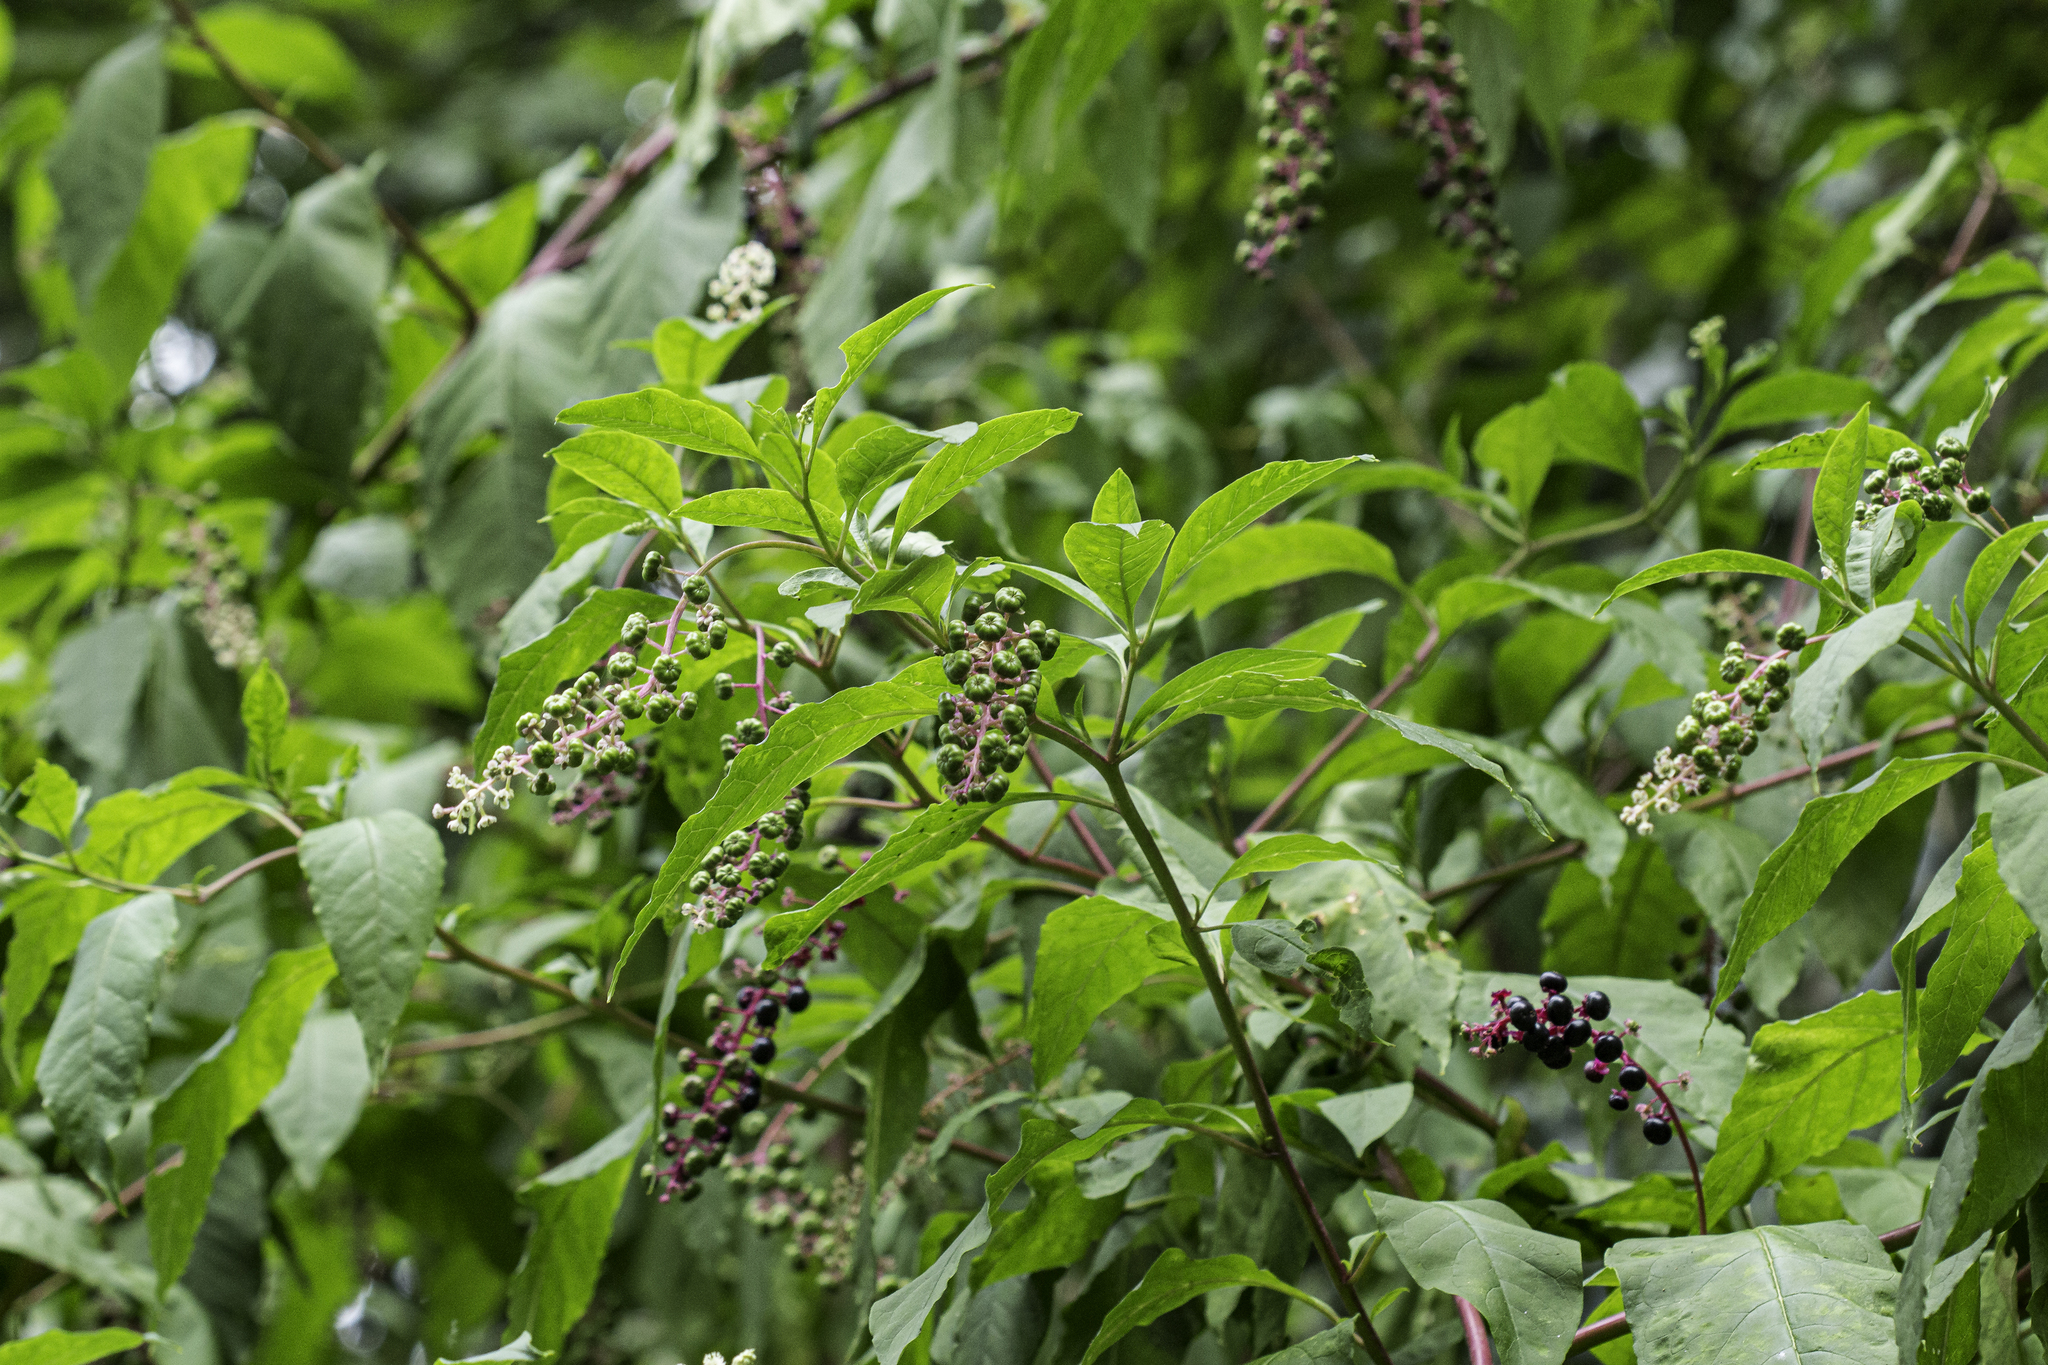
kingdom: Plantae
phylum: Tracheophyta
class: Magnoliopsida
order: Caryophyllales
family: Phytolaccaceae
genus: Phytolacca
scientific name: Phytolacca americana
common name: American pokeweed
